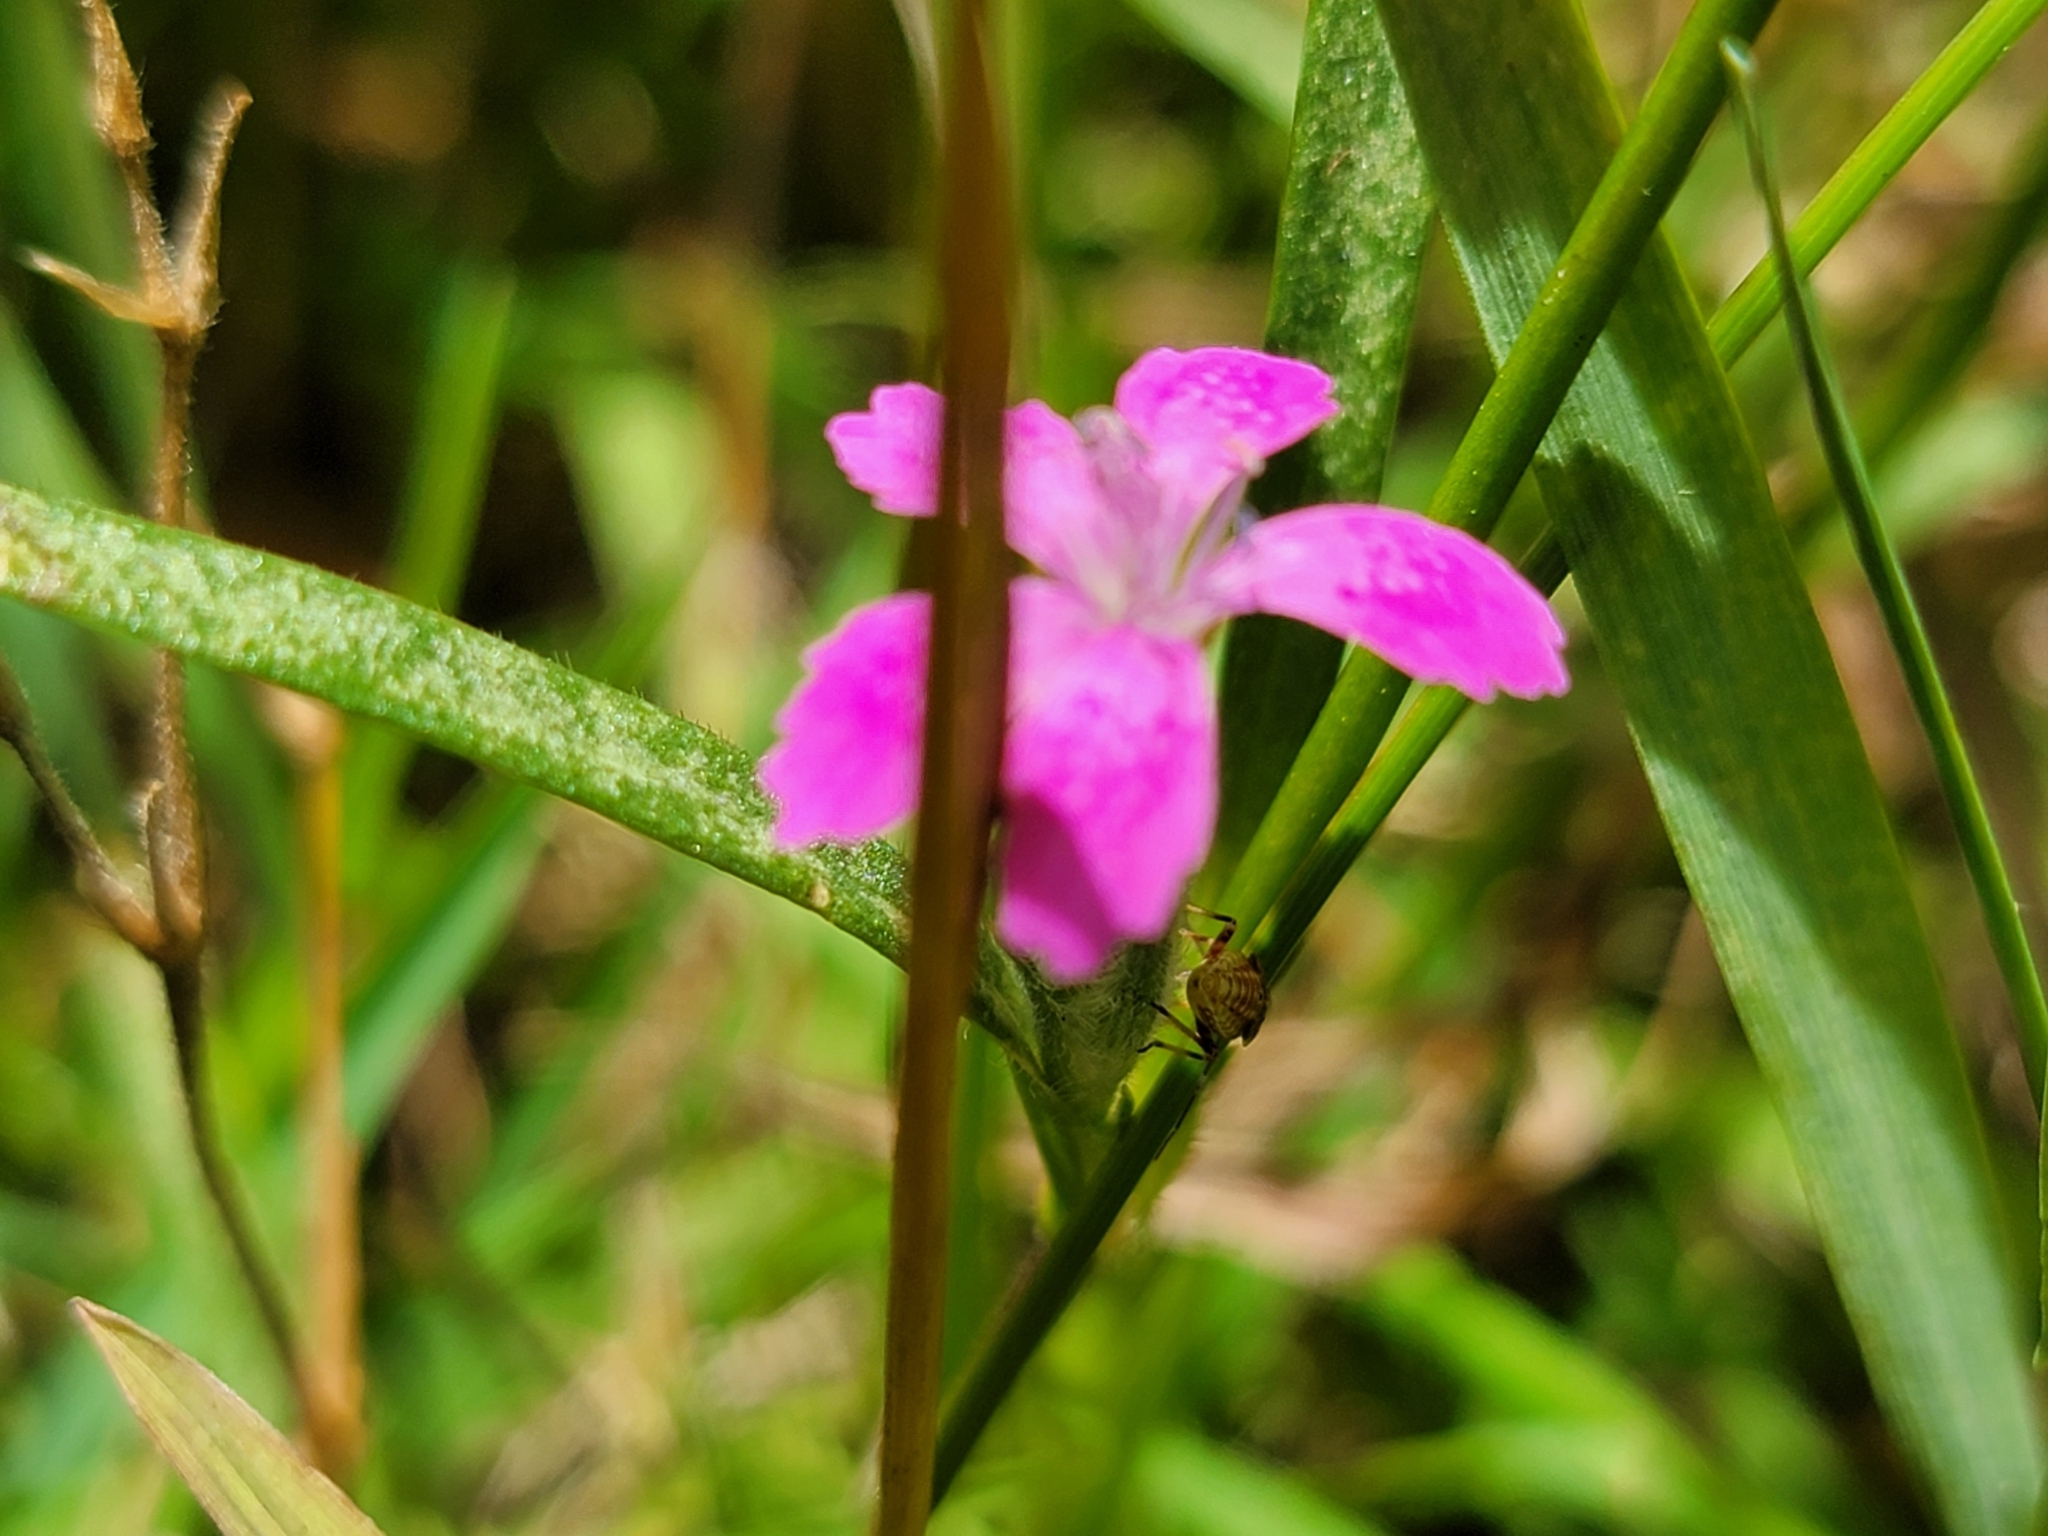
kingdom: Plantae
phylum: Tracheophyta
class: Magnoliopsida
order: Caryophyllales
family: Caryophyllaceae
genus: Dianthus
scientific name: Dianthus armeria
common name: Deptford pink
